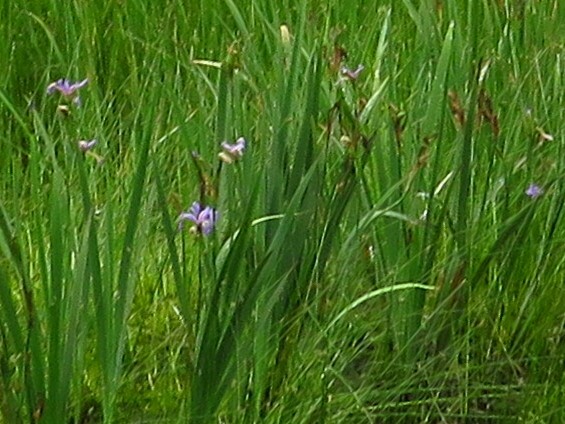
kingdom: Plantae
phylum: Tracheophyta
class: Liliopsida
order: Asparagales
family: Iridaceae
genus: Iris
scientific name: Iris versicolor
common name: Purple iris
